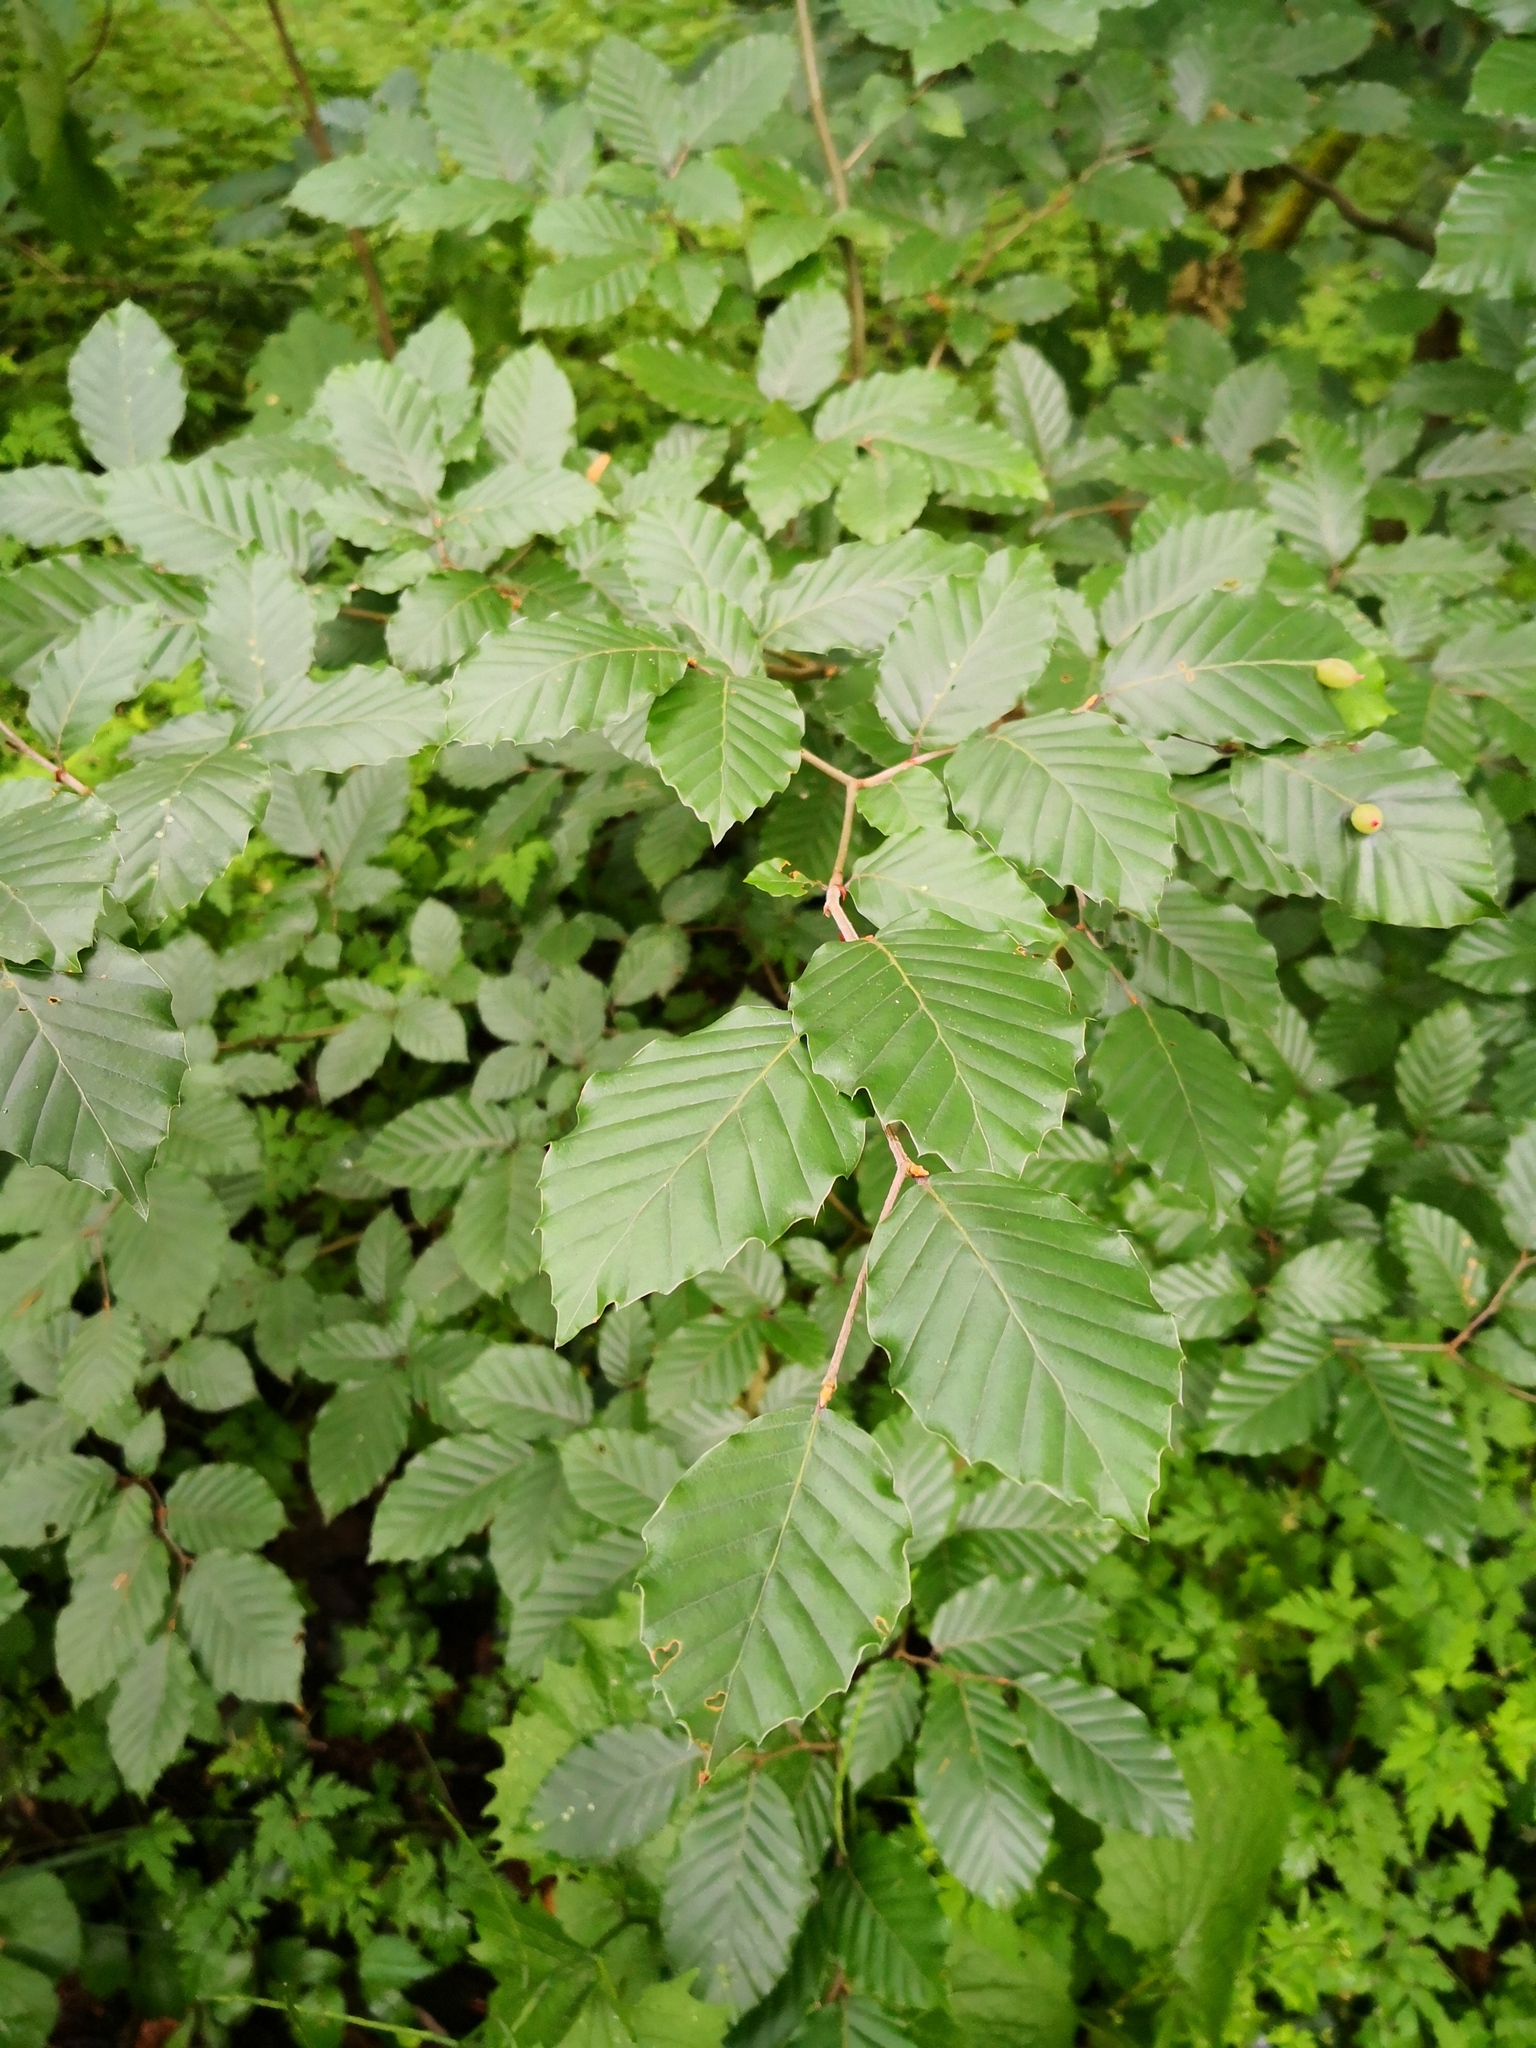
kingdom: Plantae
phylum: Tracheophyta
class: Magnoliopsida
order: Fagales
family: Fagaceae
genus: Fagus
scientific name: Fagus sylvatica
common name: Beech
